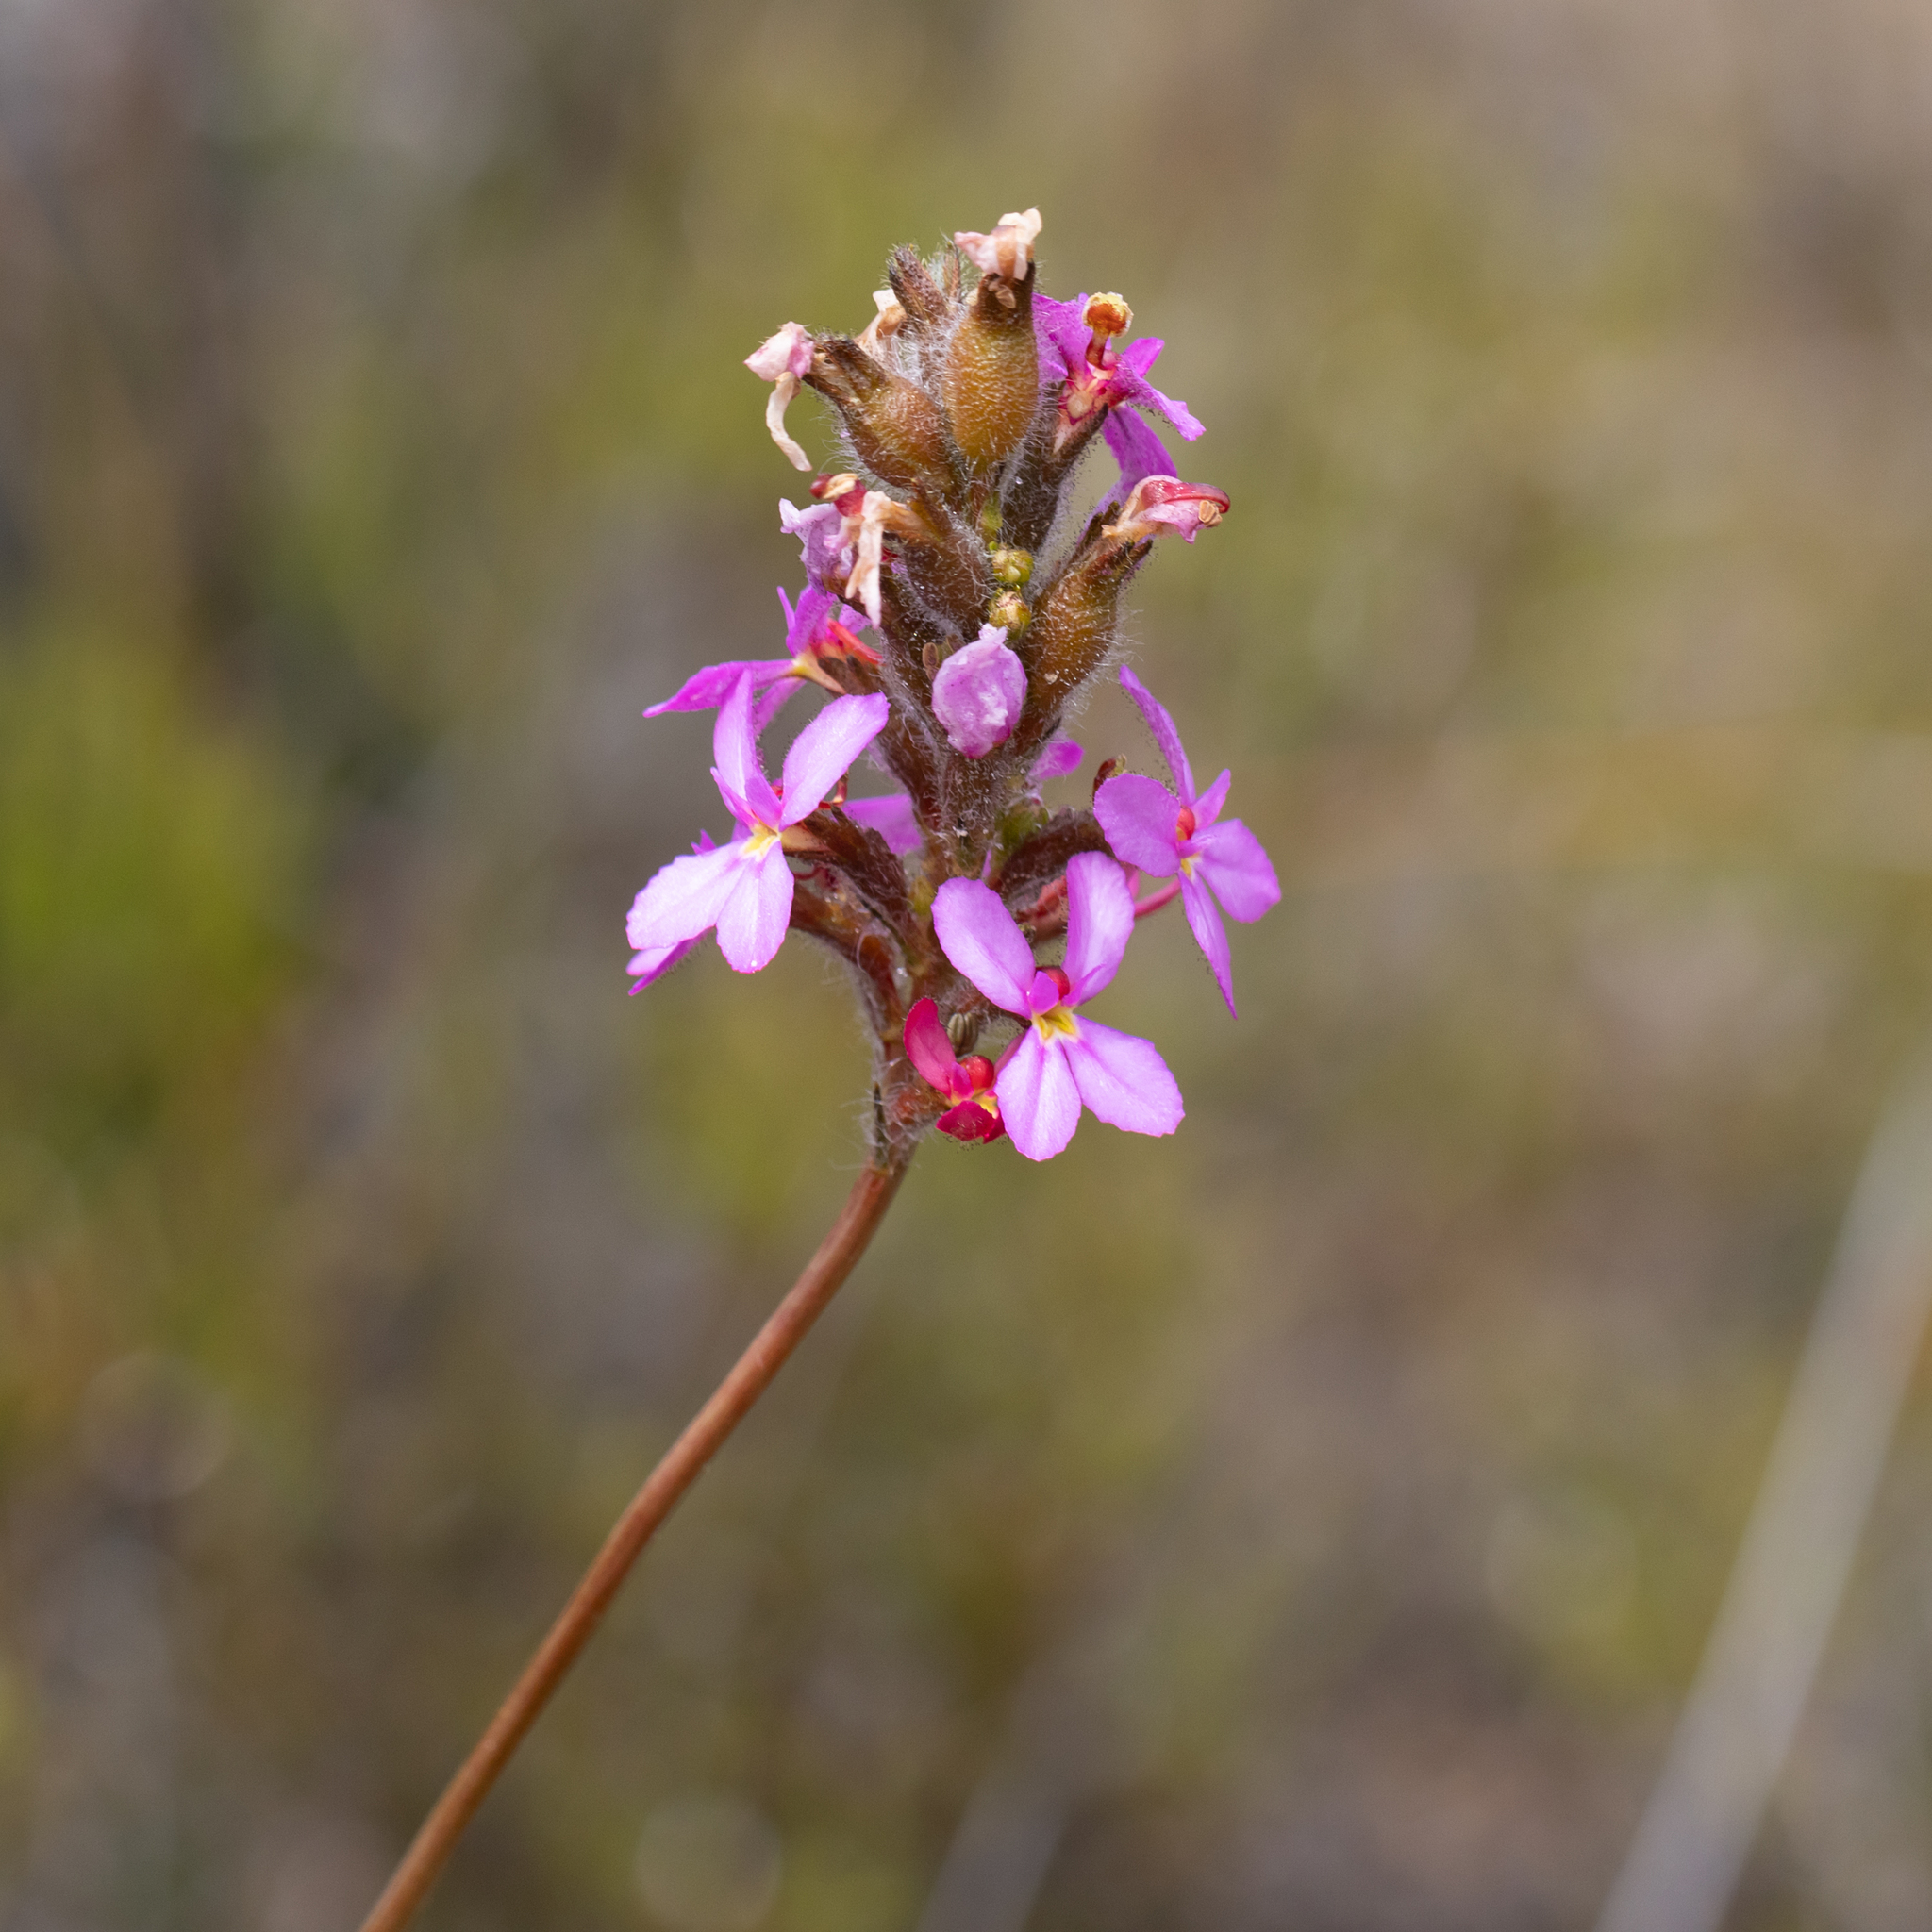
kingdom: Plantae
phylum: Tracheophyta
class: Magnoliopsida
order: Asterales
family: Stylidiaceae
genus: Stylidium
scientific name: Stylidium hirsutum
